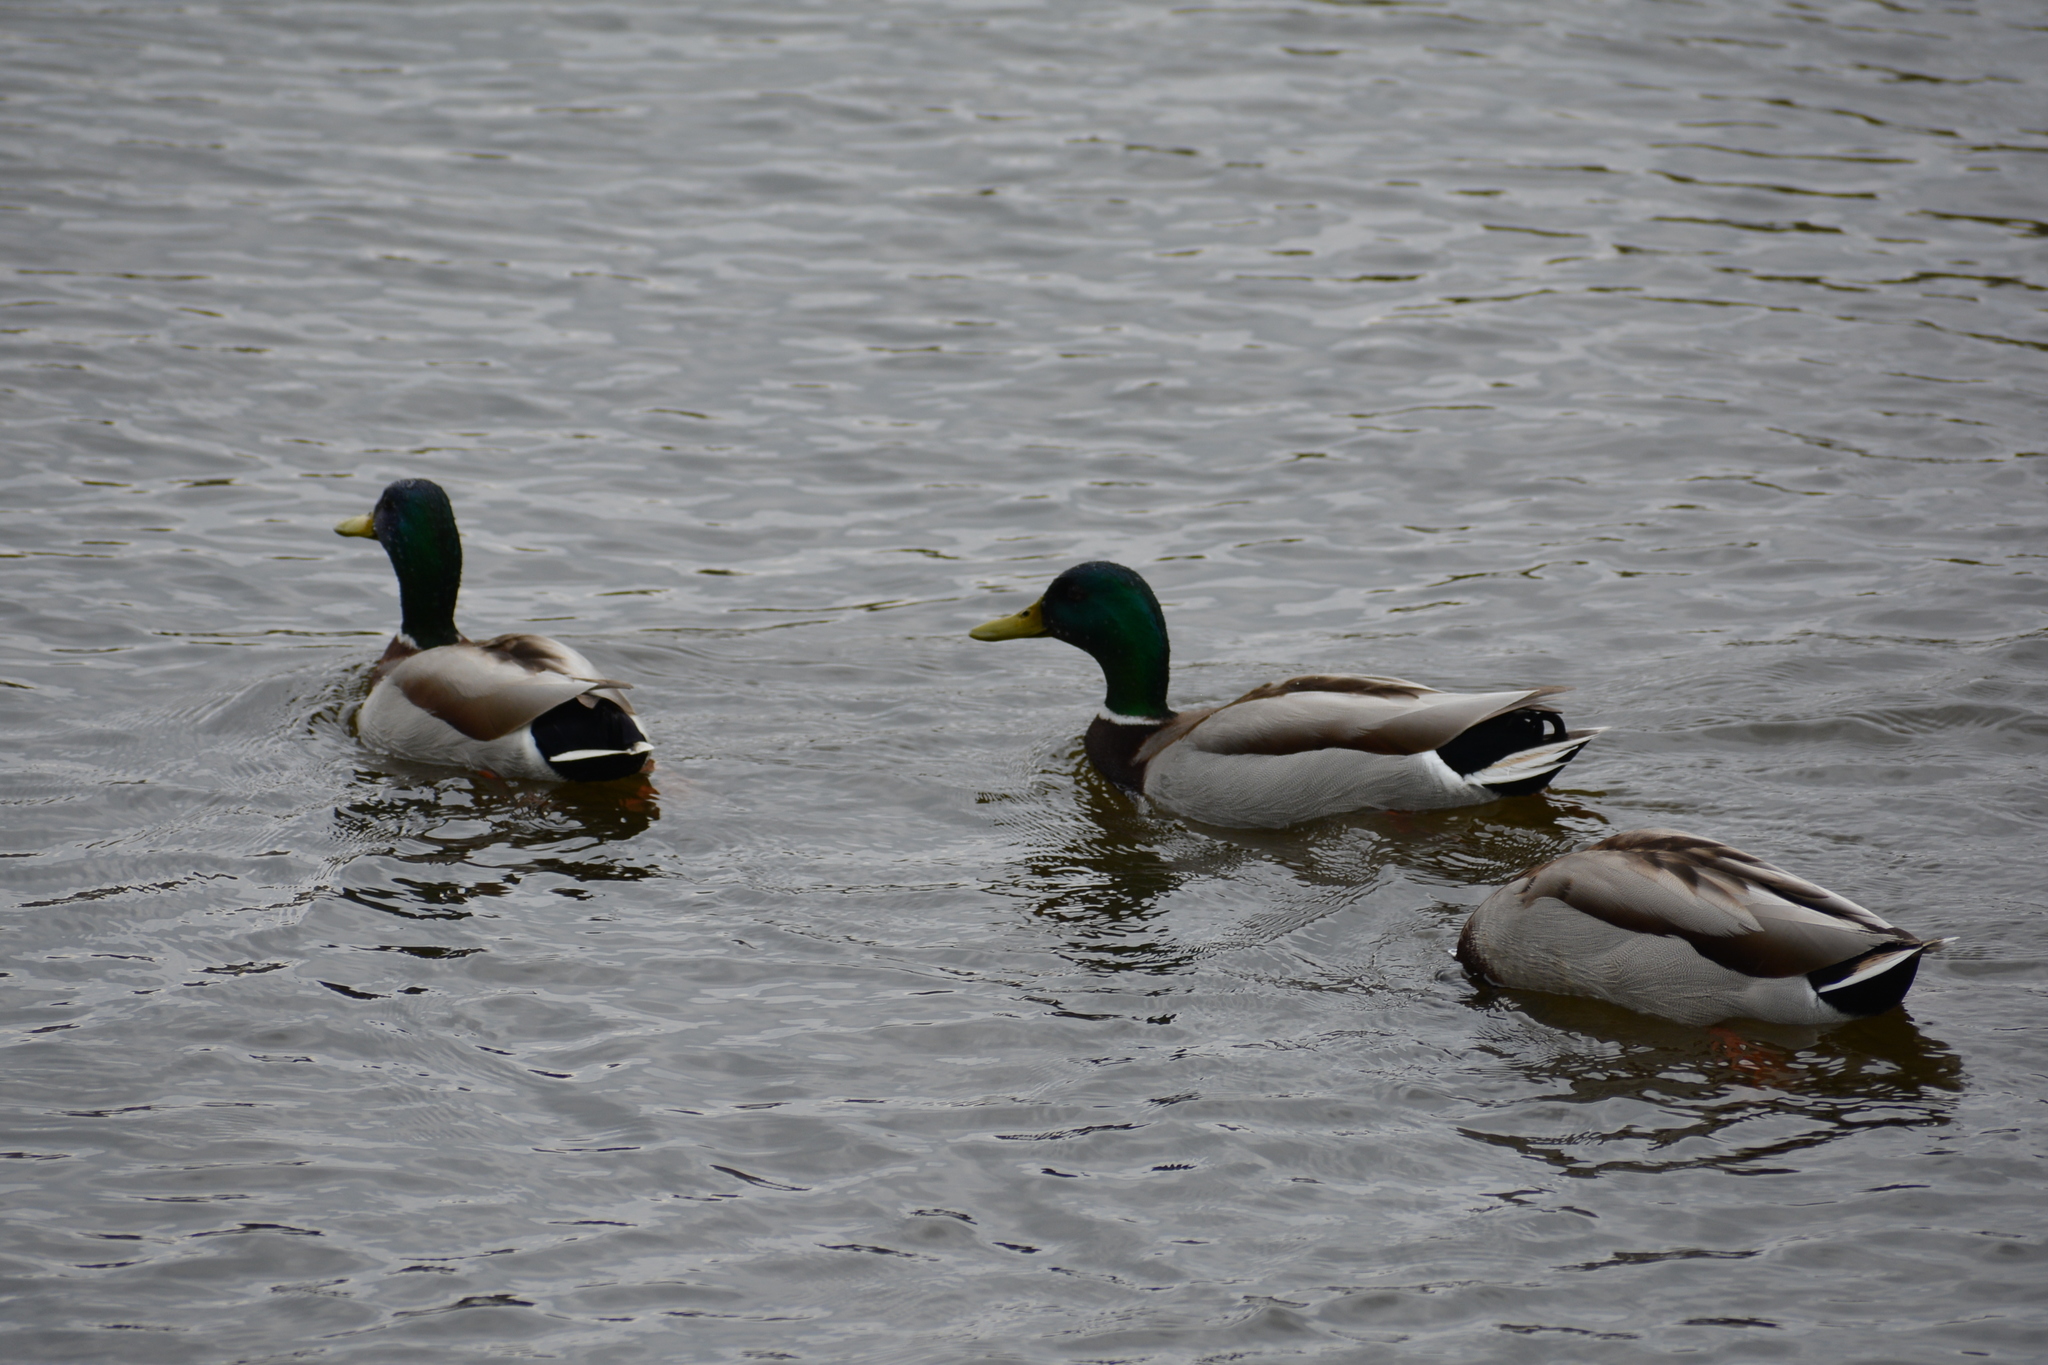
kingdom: Animalia
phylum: Chordata
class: Aves
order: Anseriformes
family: Anatidae
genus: Anas
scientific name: Anas platyrhynchos
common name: Mallard
